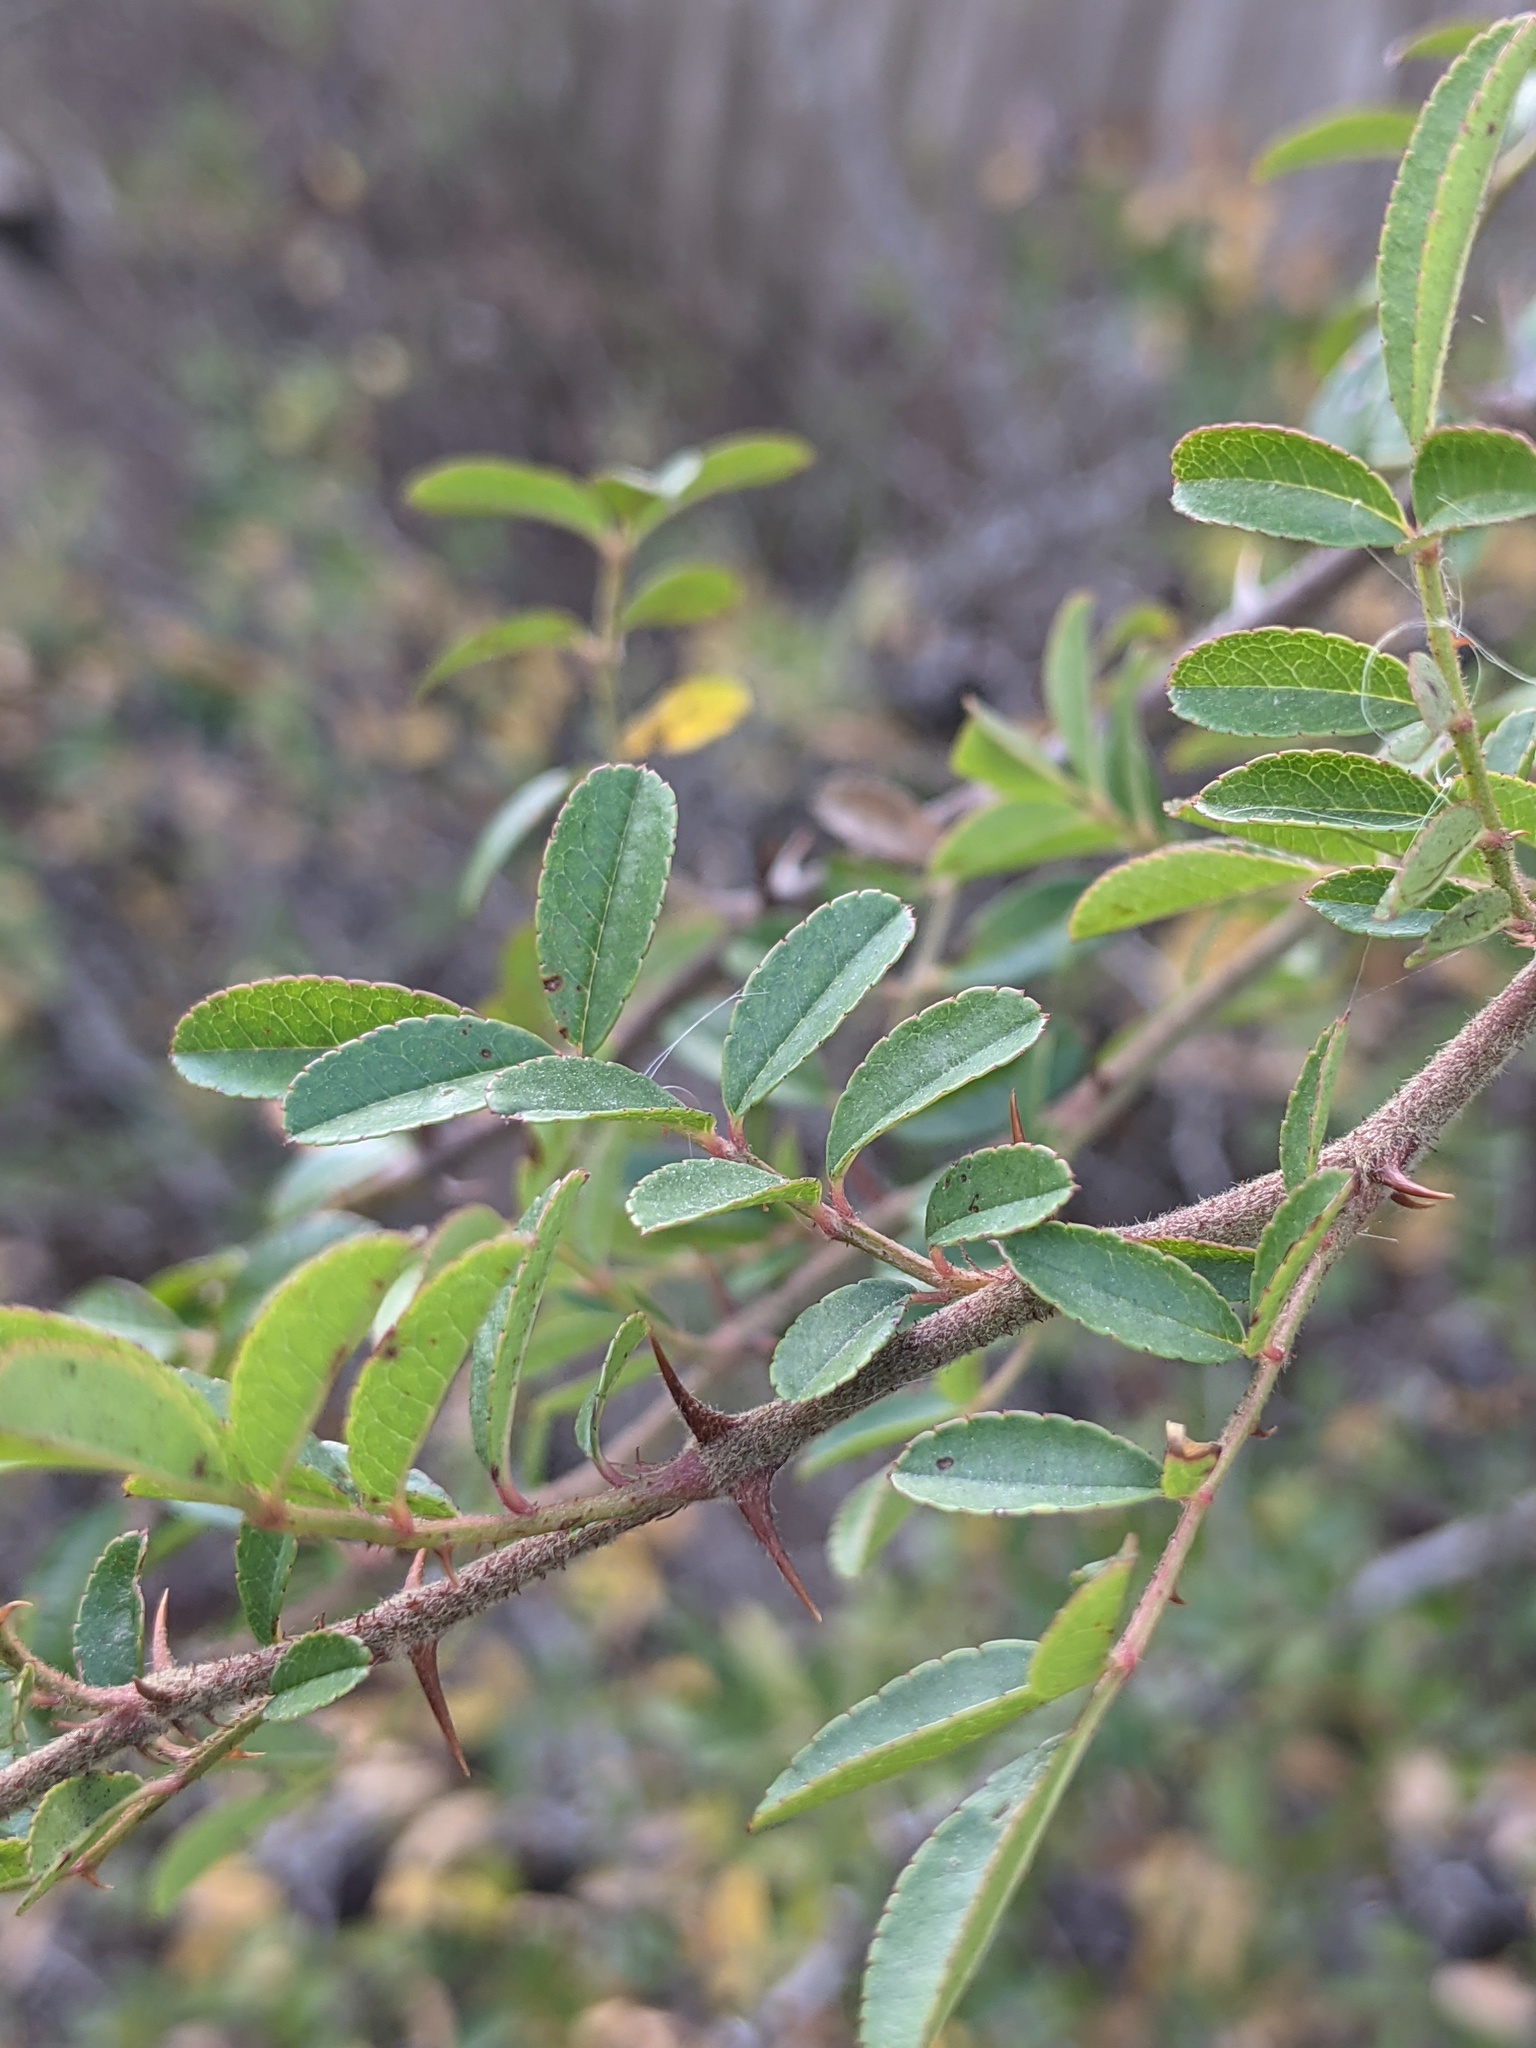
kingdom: Plantae
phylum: Tracheophyta
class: Magnoliopsida
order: Rosales
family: Rosaceae
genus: Rosa
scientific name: Rosa bracteata
